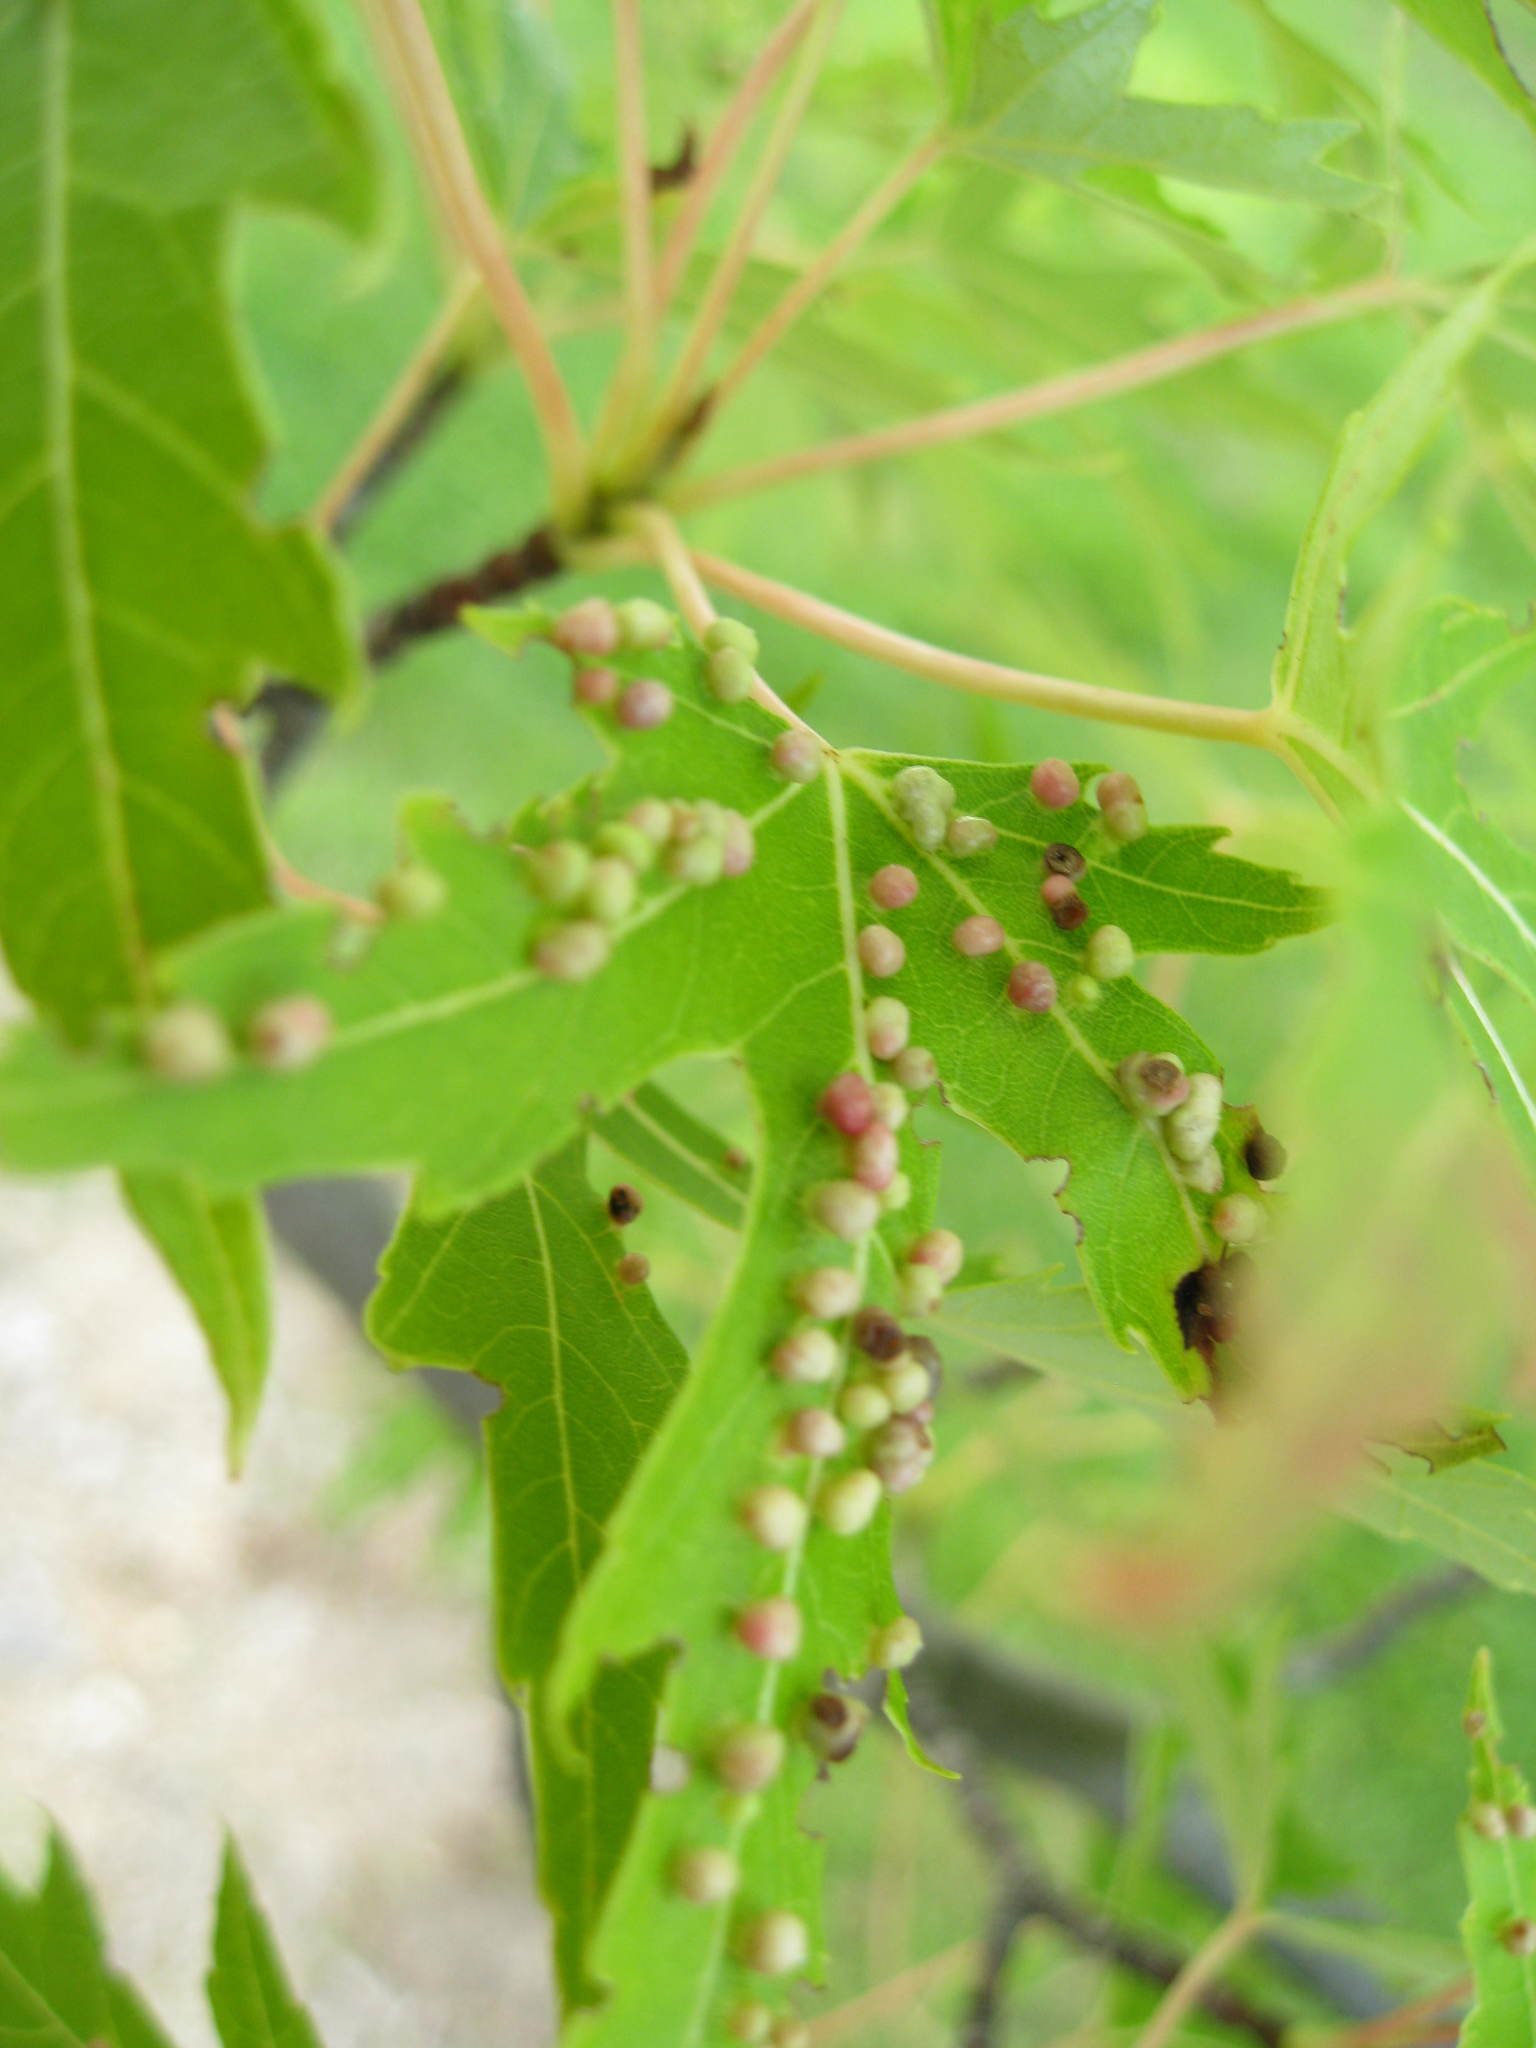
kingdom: Animalia
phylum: Arthropoda
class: Arachnida
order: Trombidiformes
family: Eriophyidae
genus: Vasates
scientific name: Vasates quadripedes
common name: Maple bladder gall mite
